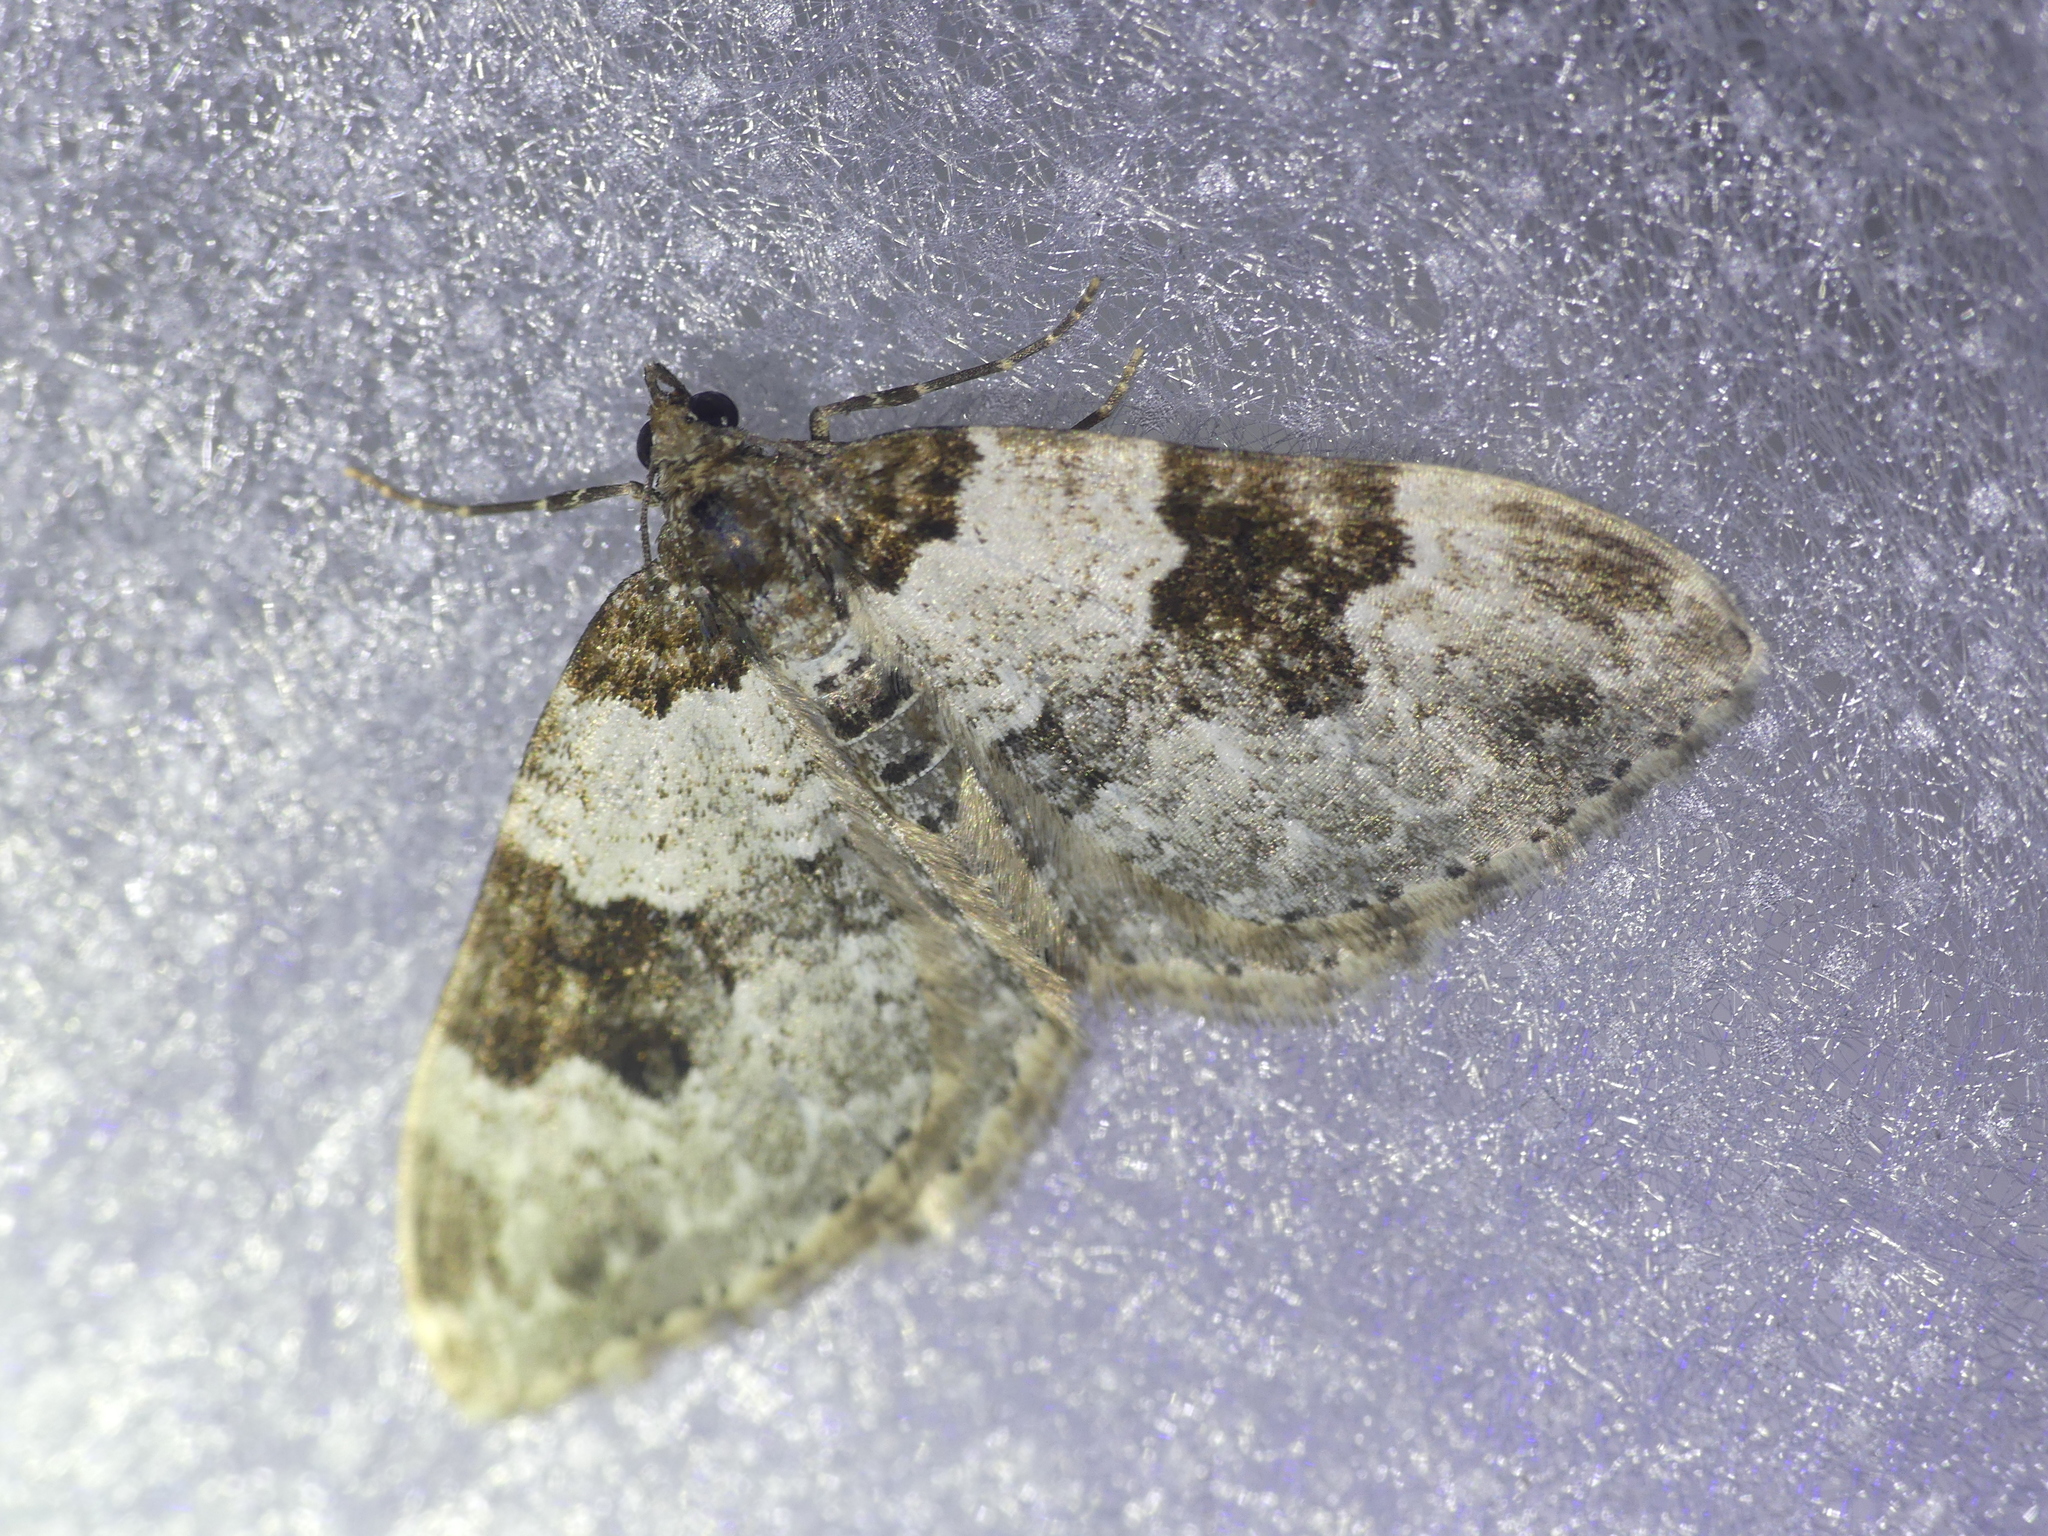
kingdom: Animalia
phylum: Arthropoda
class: Insecta
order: Lepidoptera
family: Geometridae
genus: Xanthorhoe
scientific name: Xanthorhoe fluctuata
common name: Garden carpet
